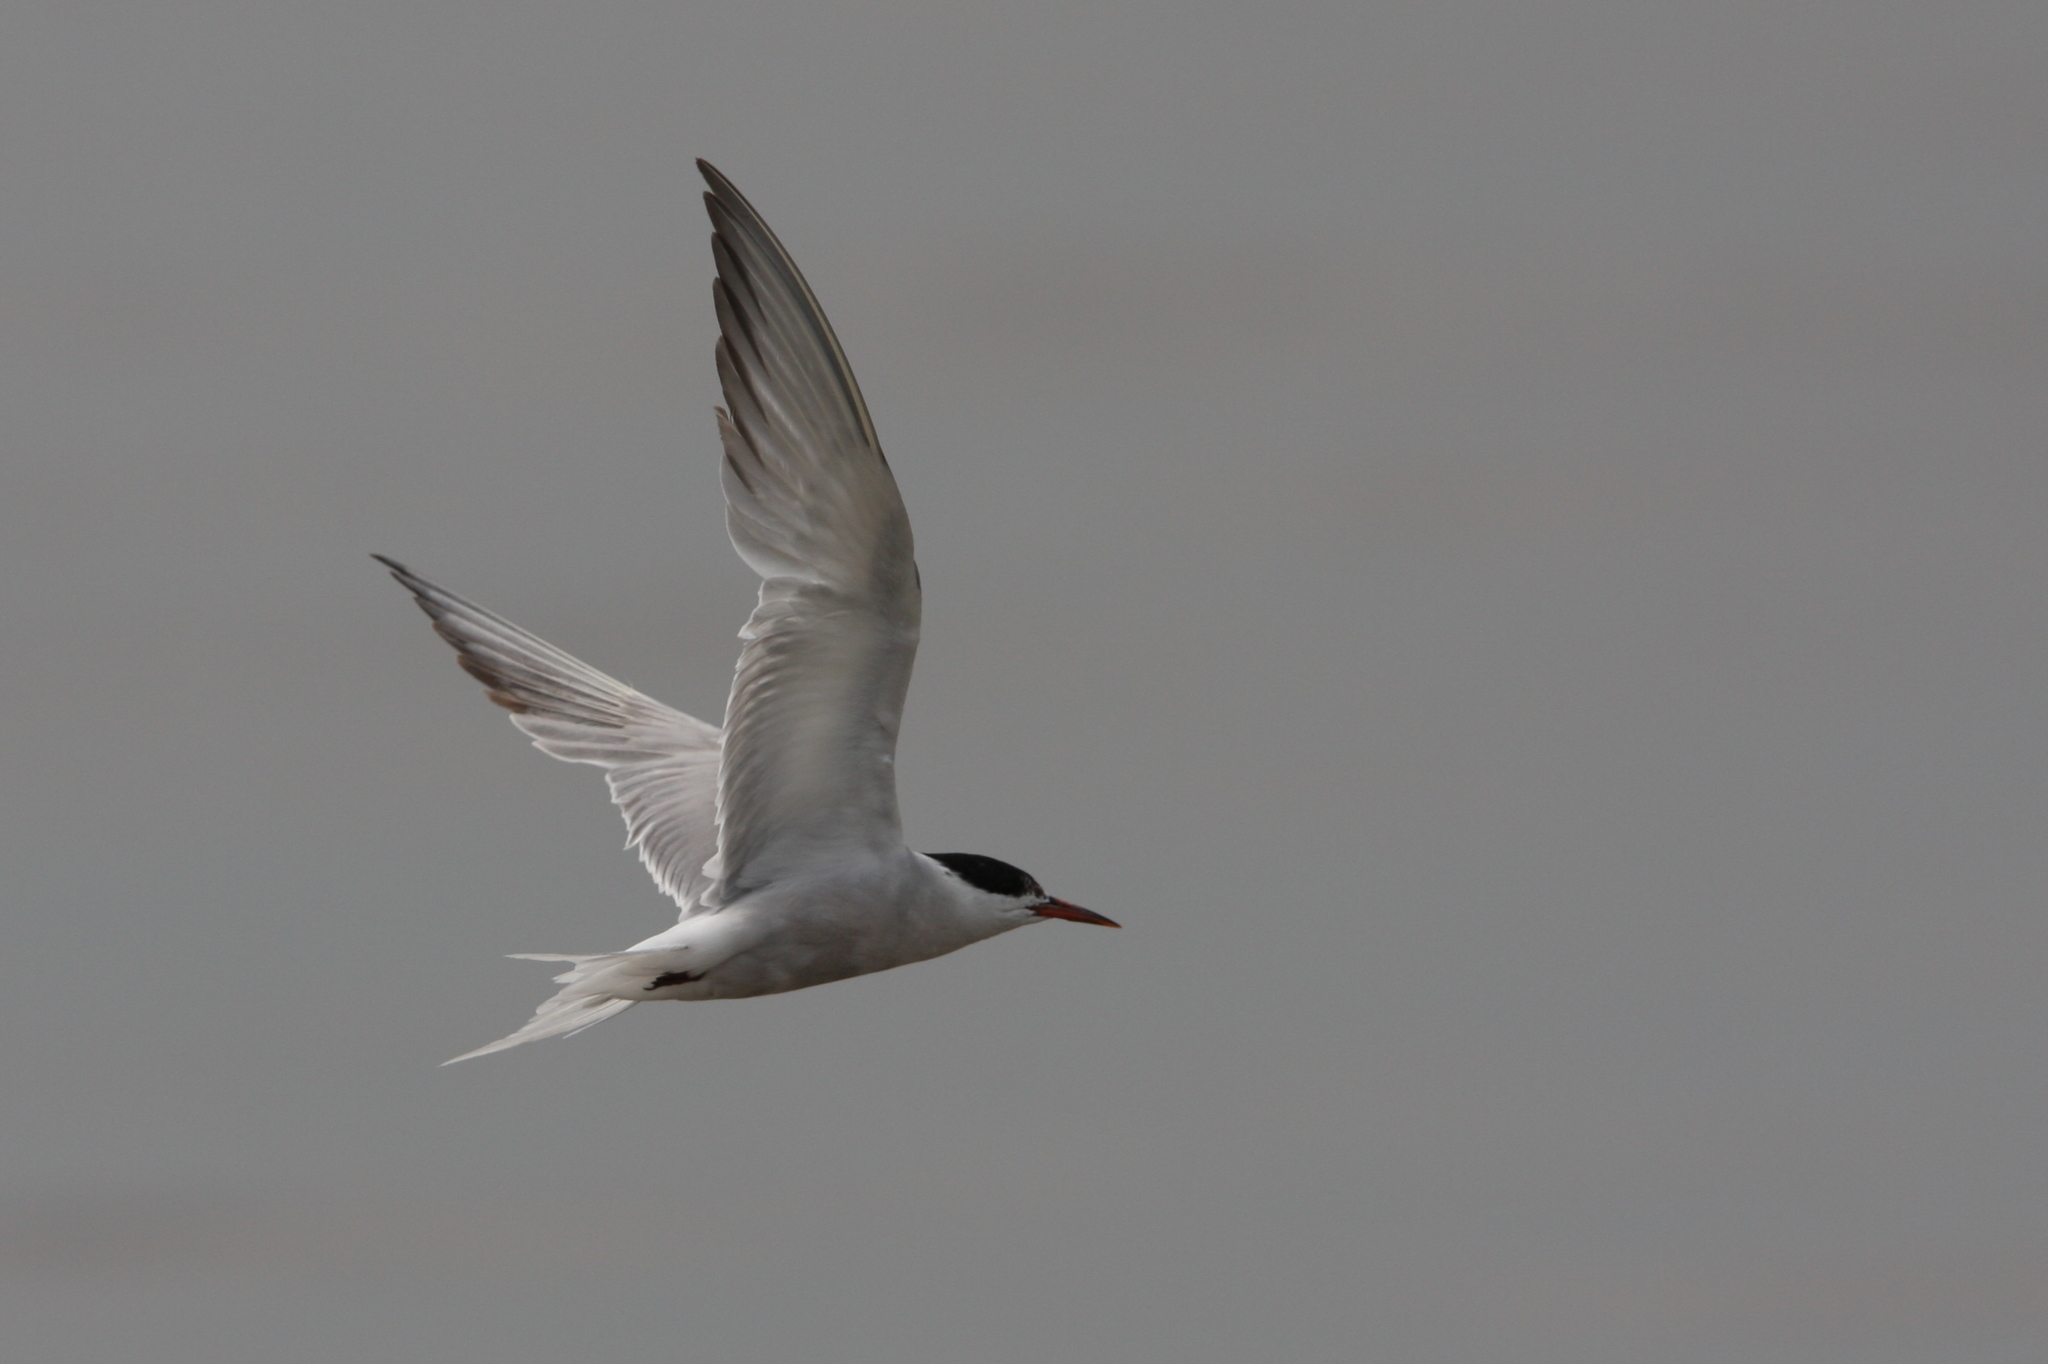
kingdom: Animalia
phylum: Chordata
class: Aves
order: Charadriiformes
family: Laridae
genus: Sterna
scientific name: Sterna hirundo
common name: Common tern
